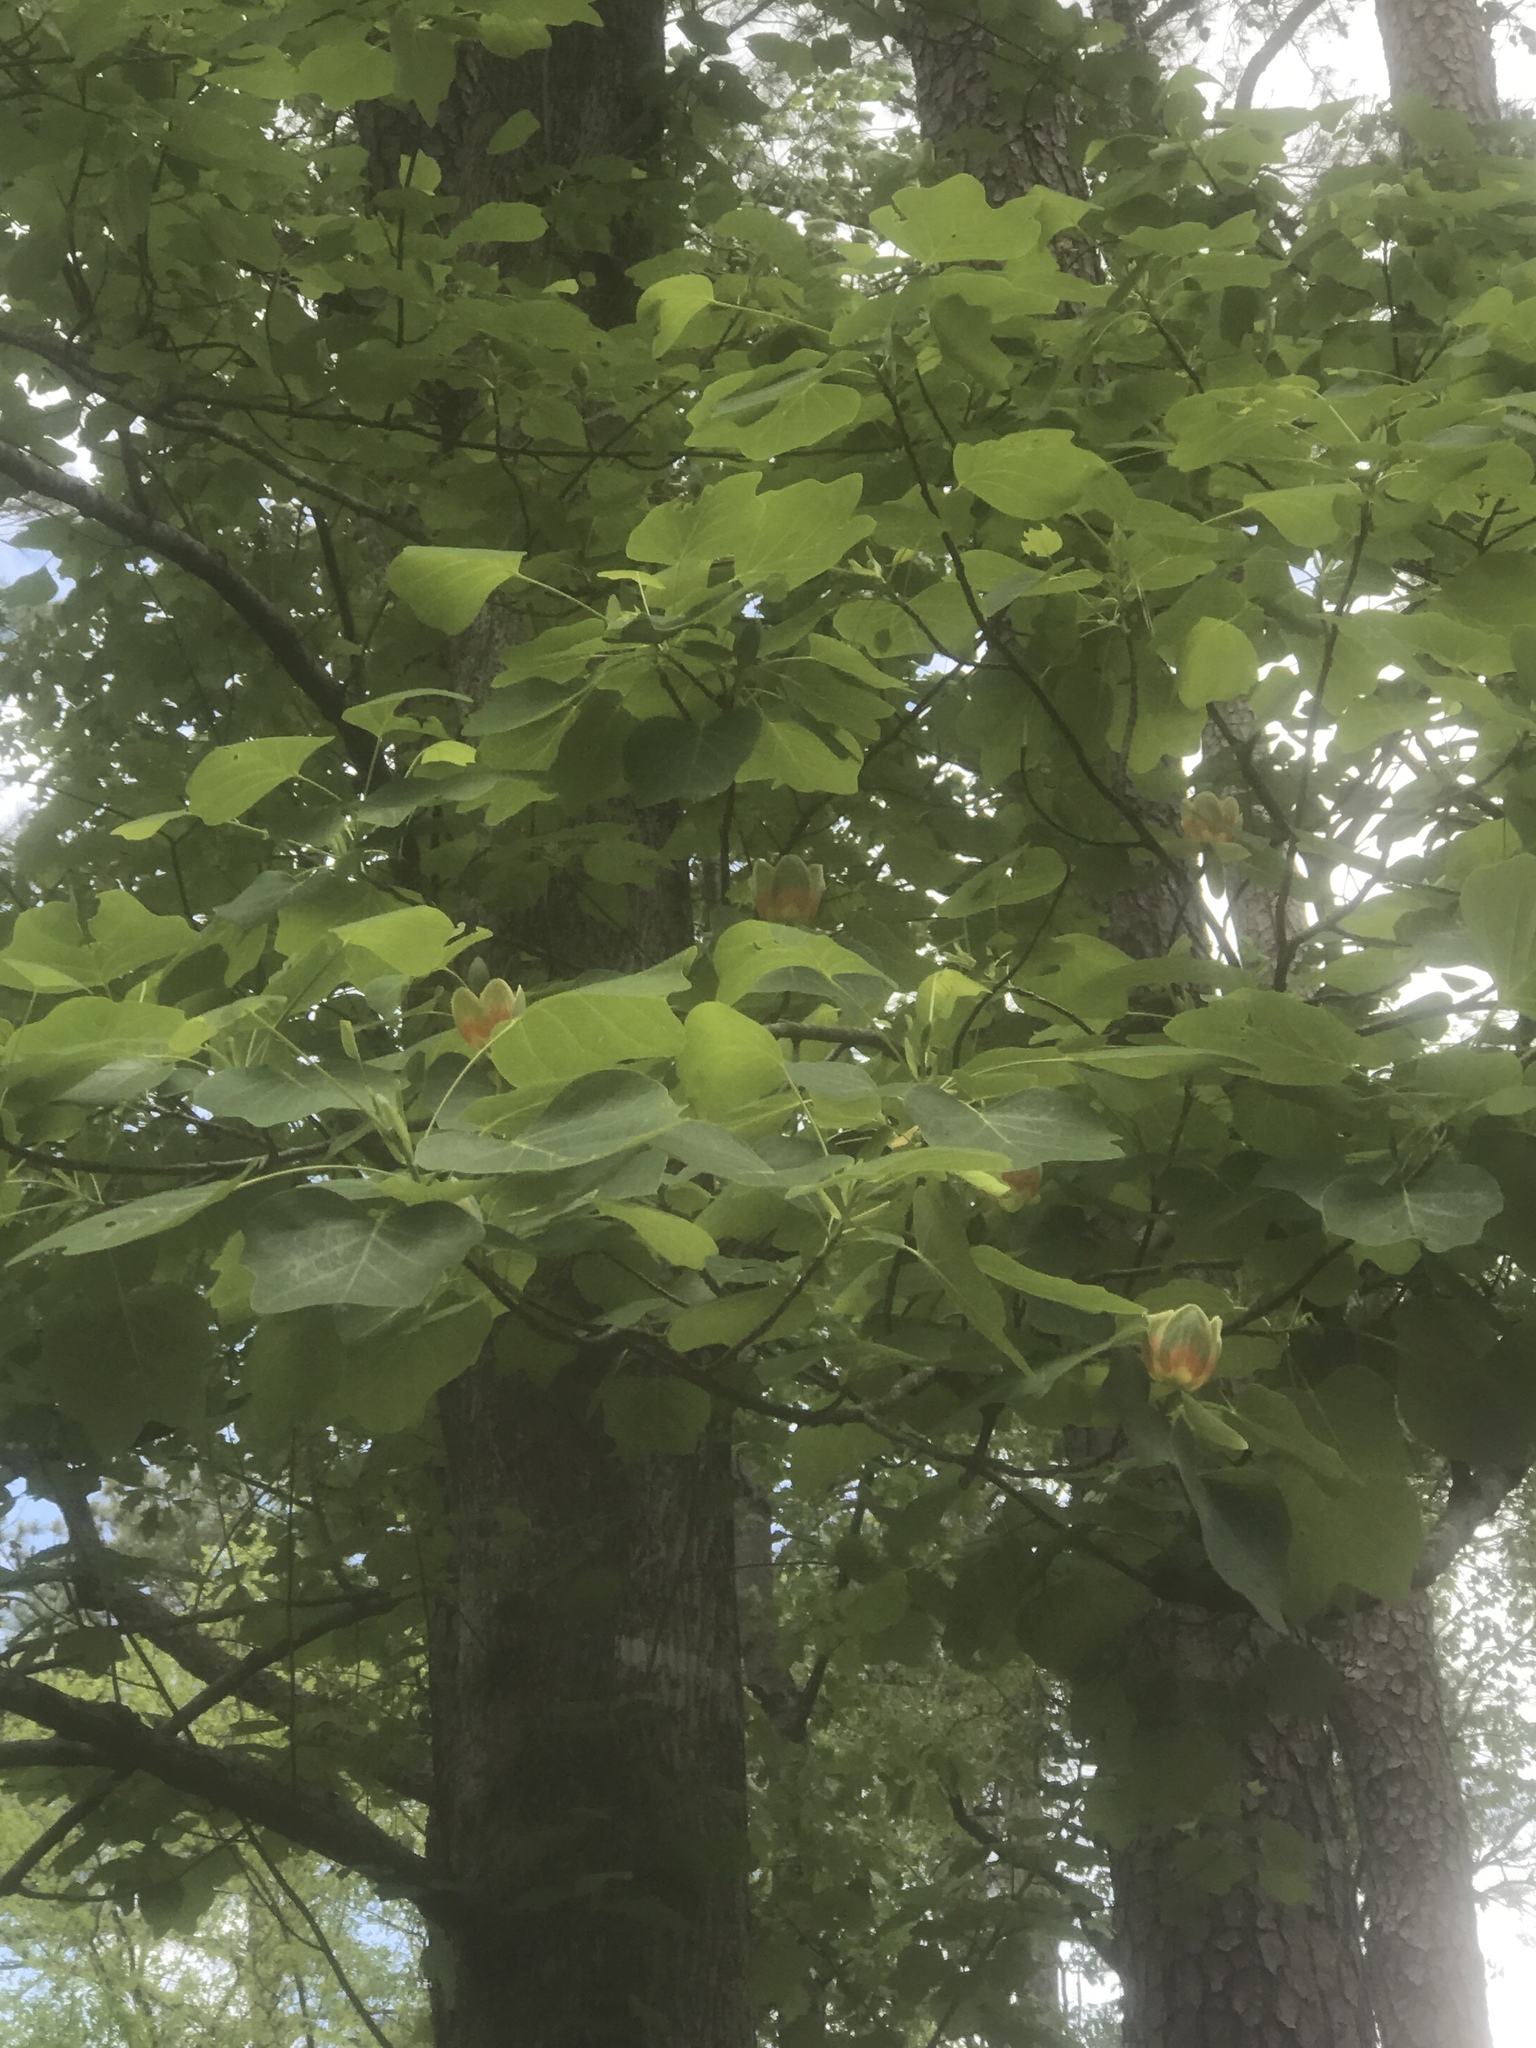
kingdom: Plantae
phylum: Tracheophyta
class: Magnoliopsida
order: Magnoliales
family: Magnoliaceae
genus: Liriodendron
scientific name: Liriodendron tulipifera
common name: Tulip tree
